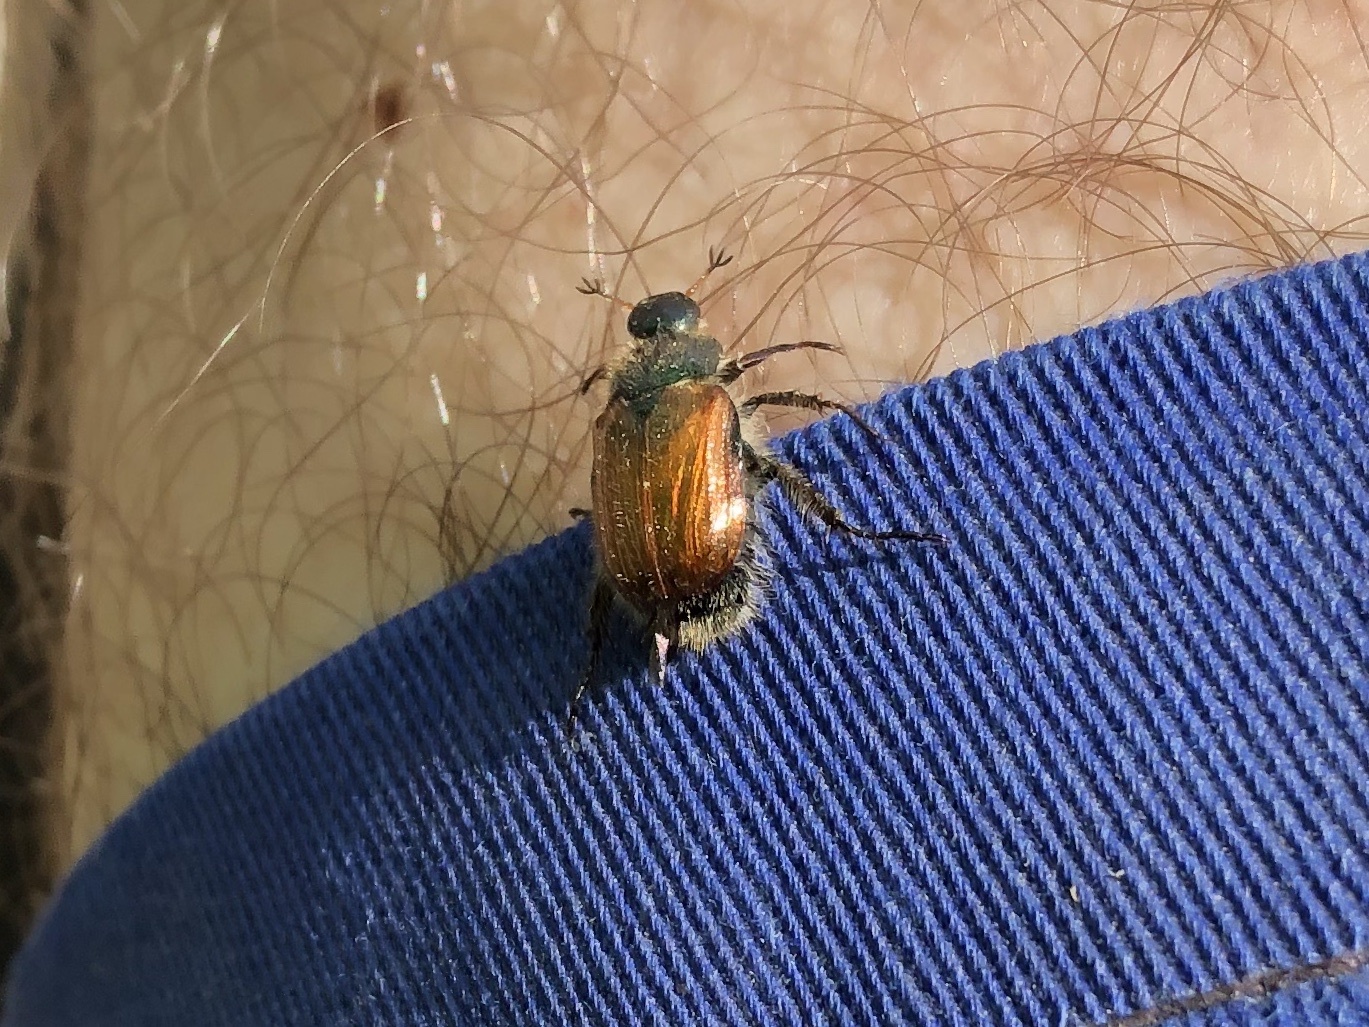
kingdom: Animalia
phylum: Arthropoda
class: Insecta
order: Coleoptera
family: Scarabaeidae
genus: Phyllopertha
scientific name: Phyllopertha horticola
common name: Garden chafer
